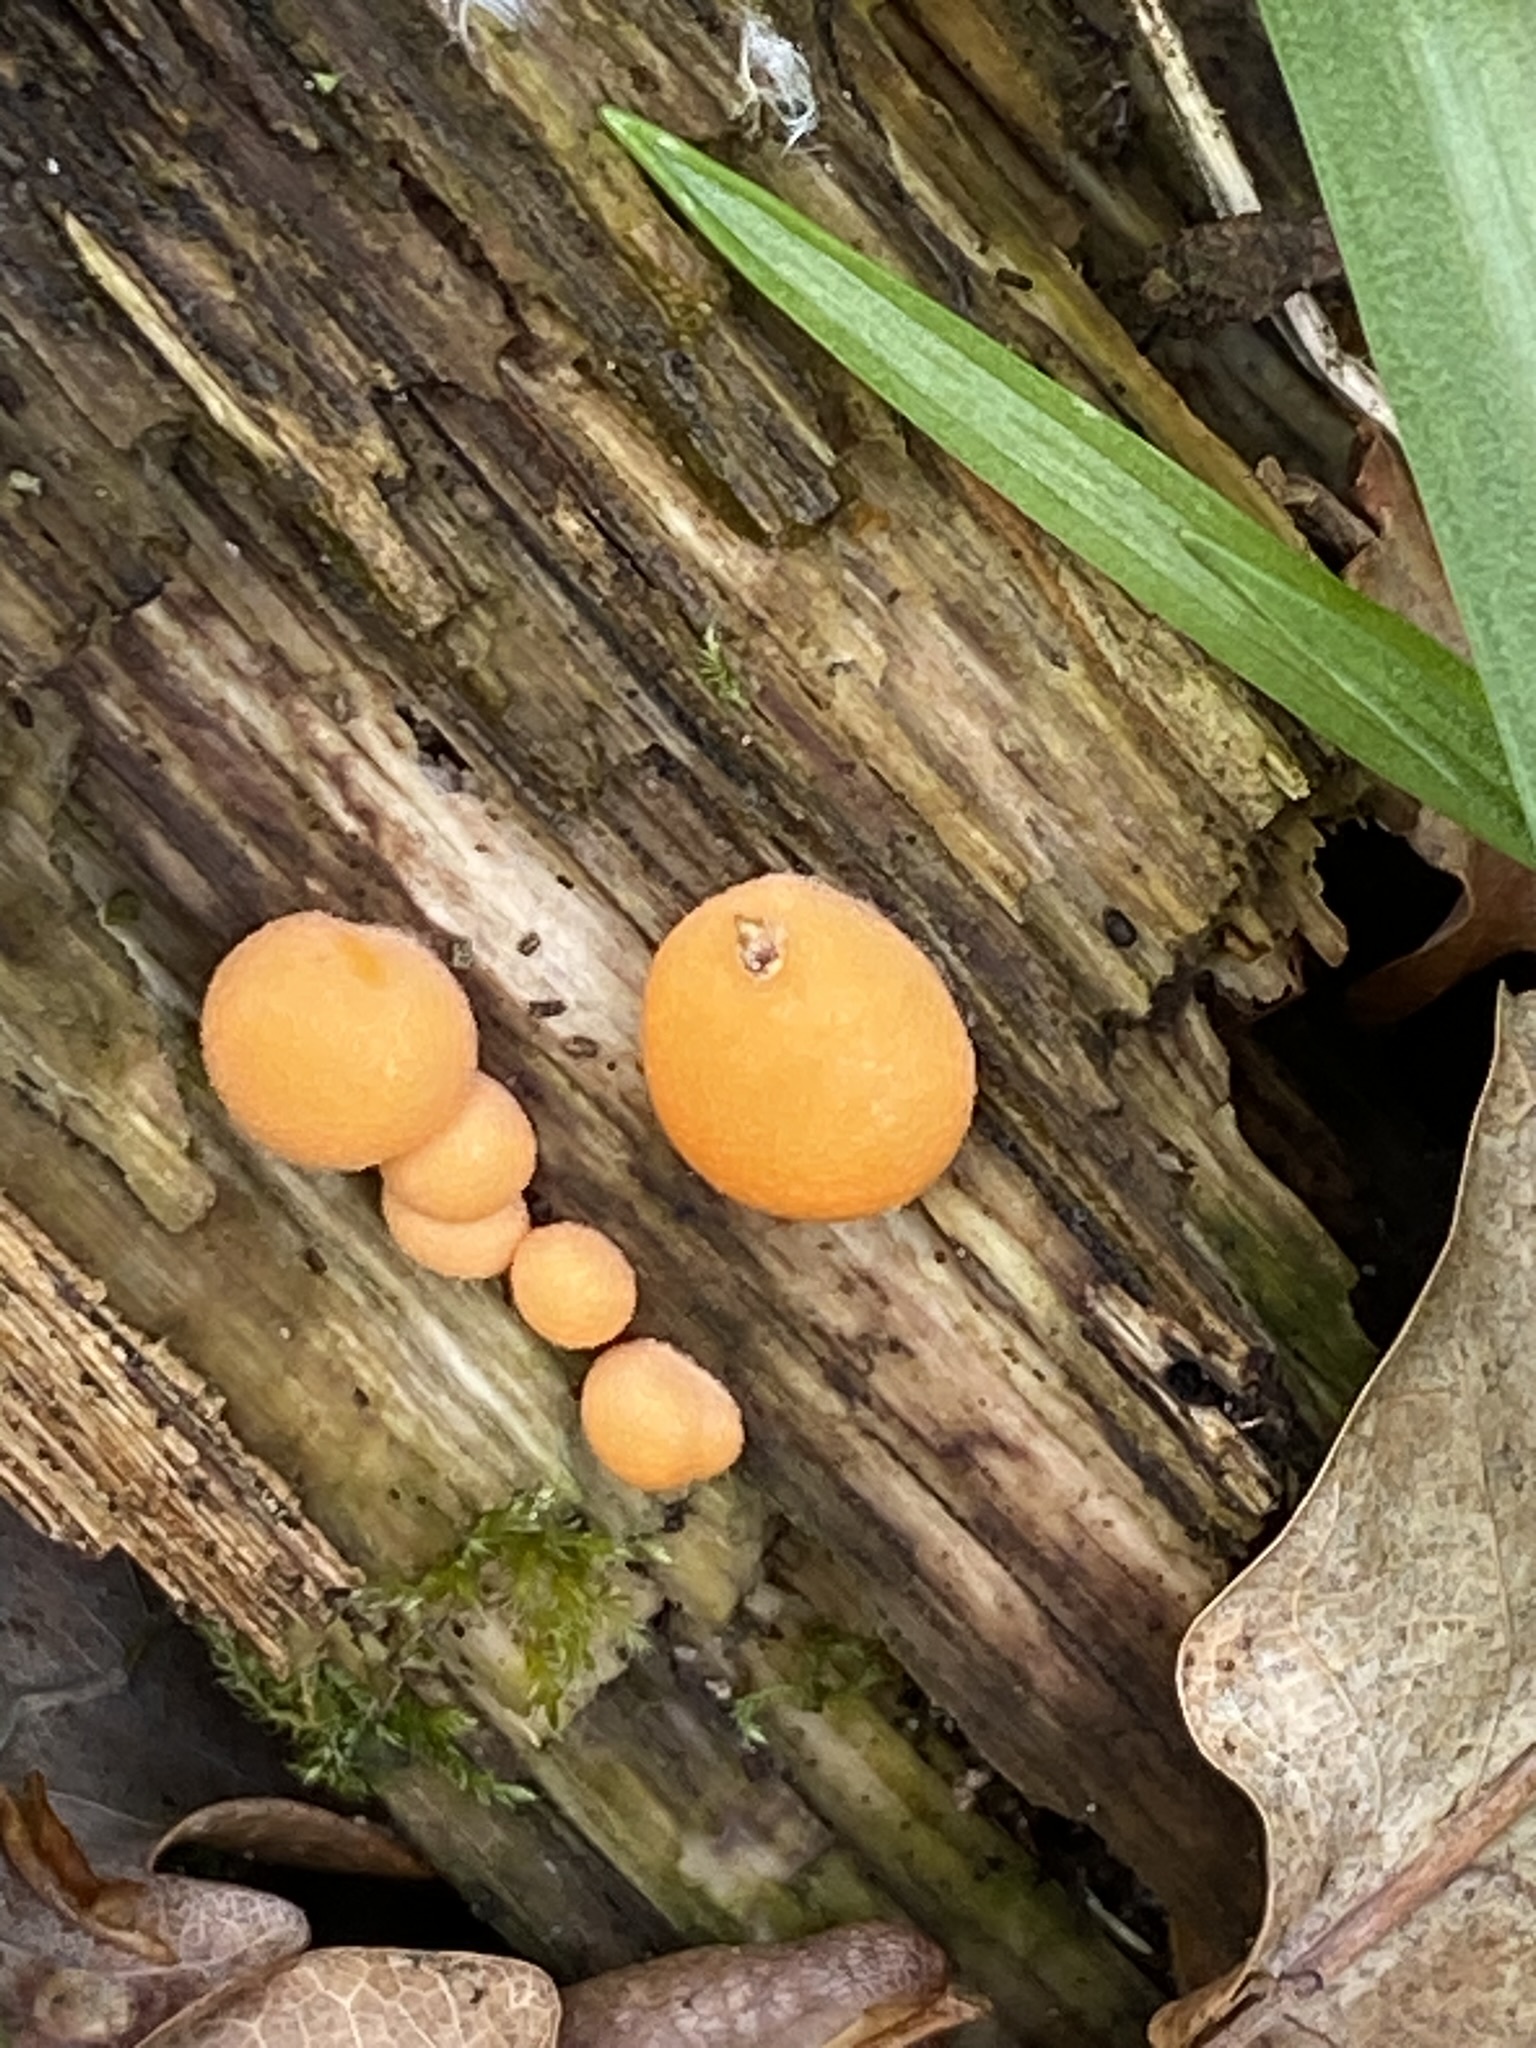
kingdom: Protozoa
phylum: Mycetozoa
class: Myxomycetes
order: Cribrariales
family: Tubiferaceae
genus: Lycogala
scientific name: Lycogala
